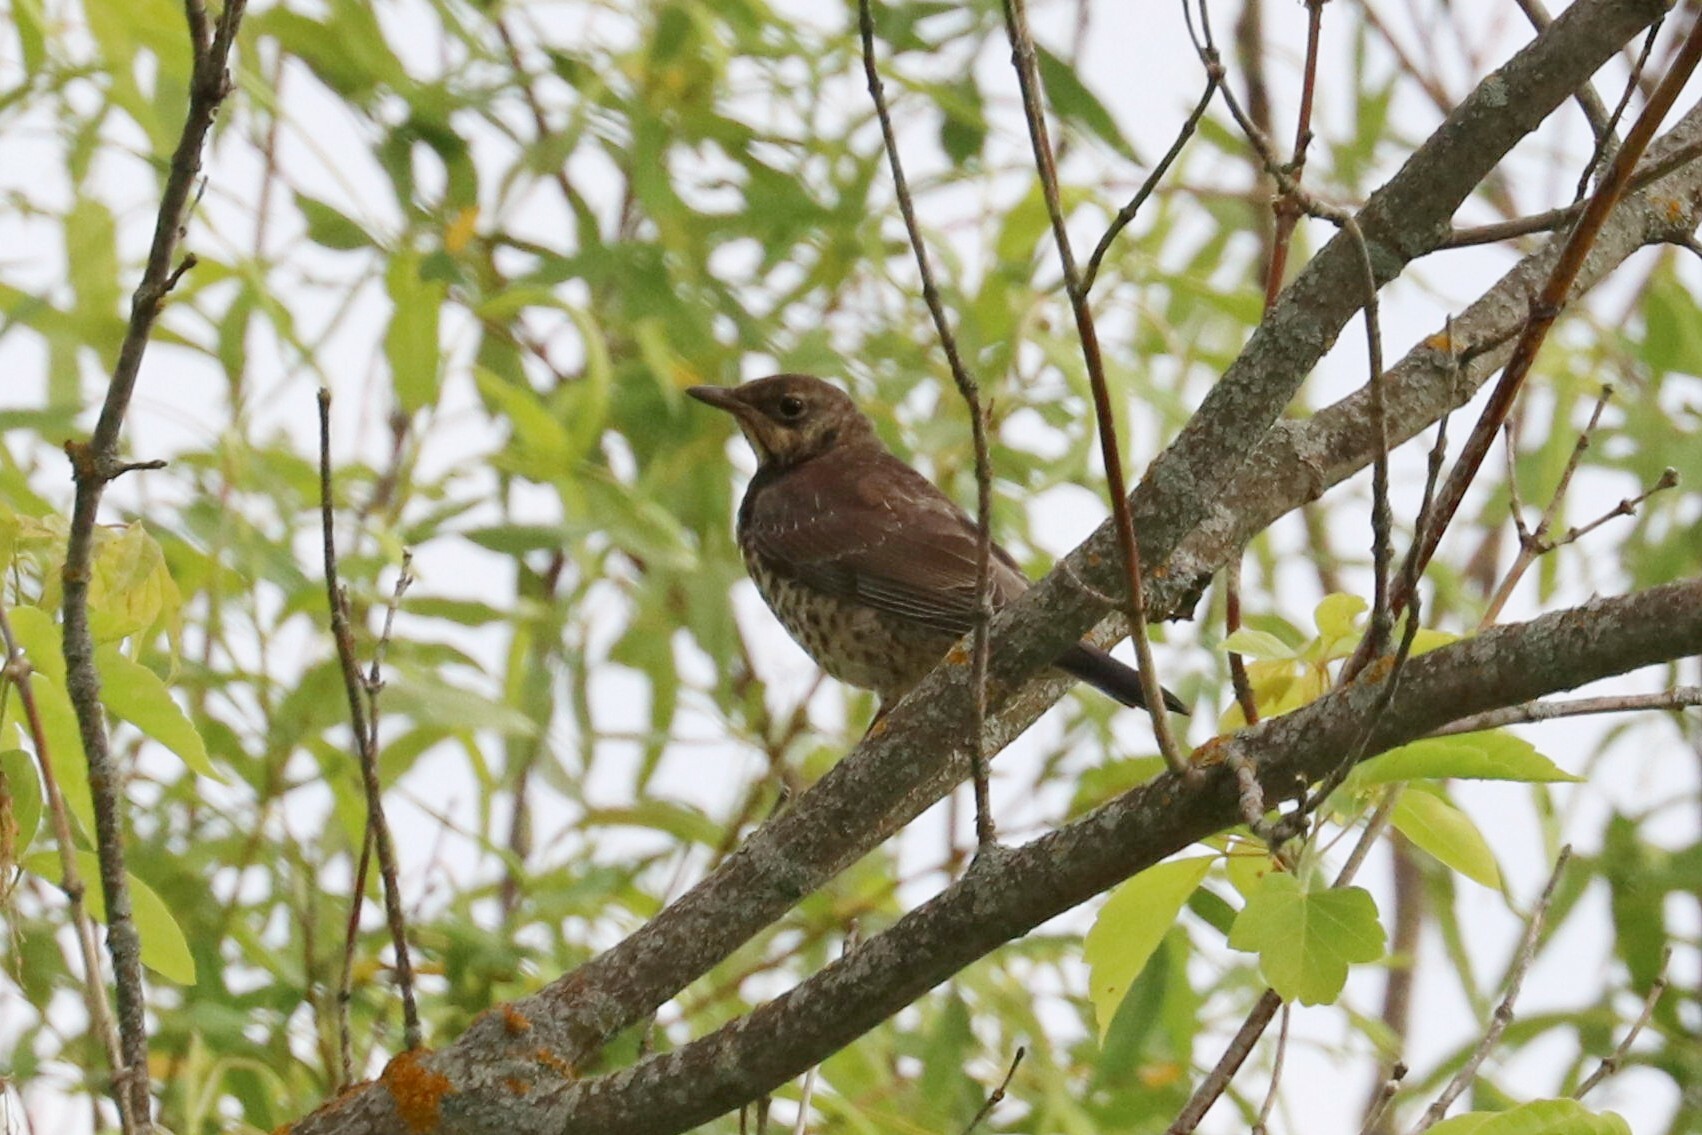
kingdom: Animalia
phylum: Chordata
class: Aves
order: Passeriformes
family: Turdidae
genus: Turdus
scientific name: Turdus pilaris
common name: Fieldfare
